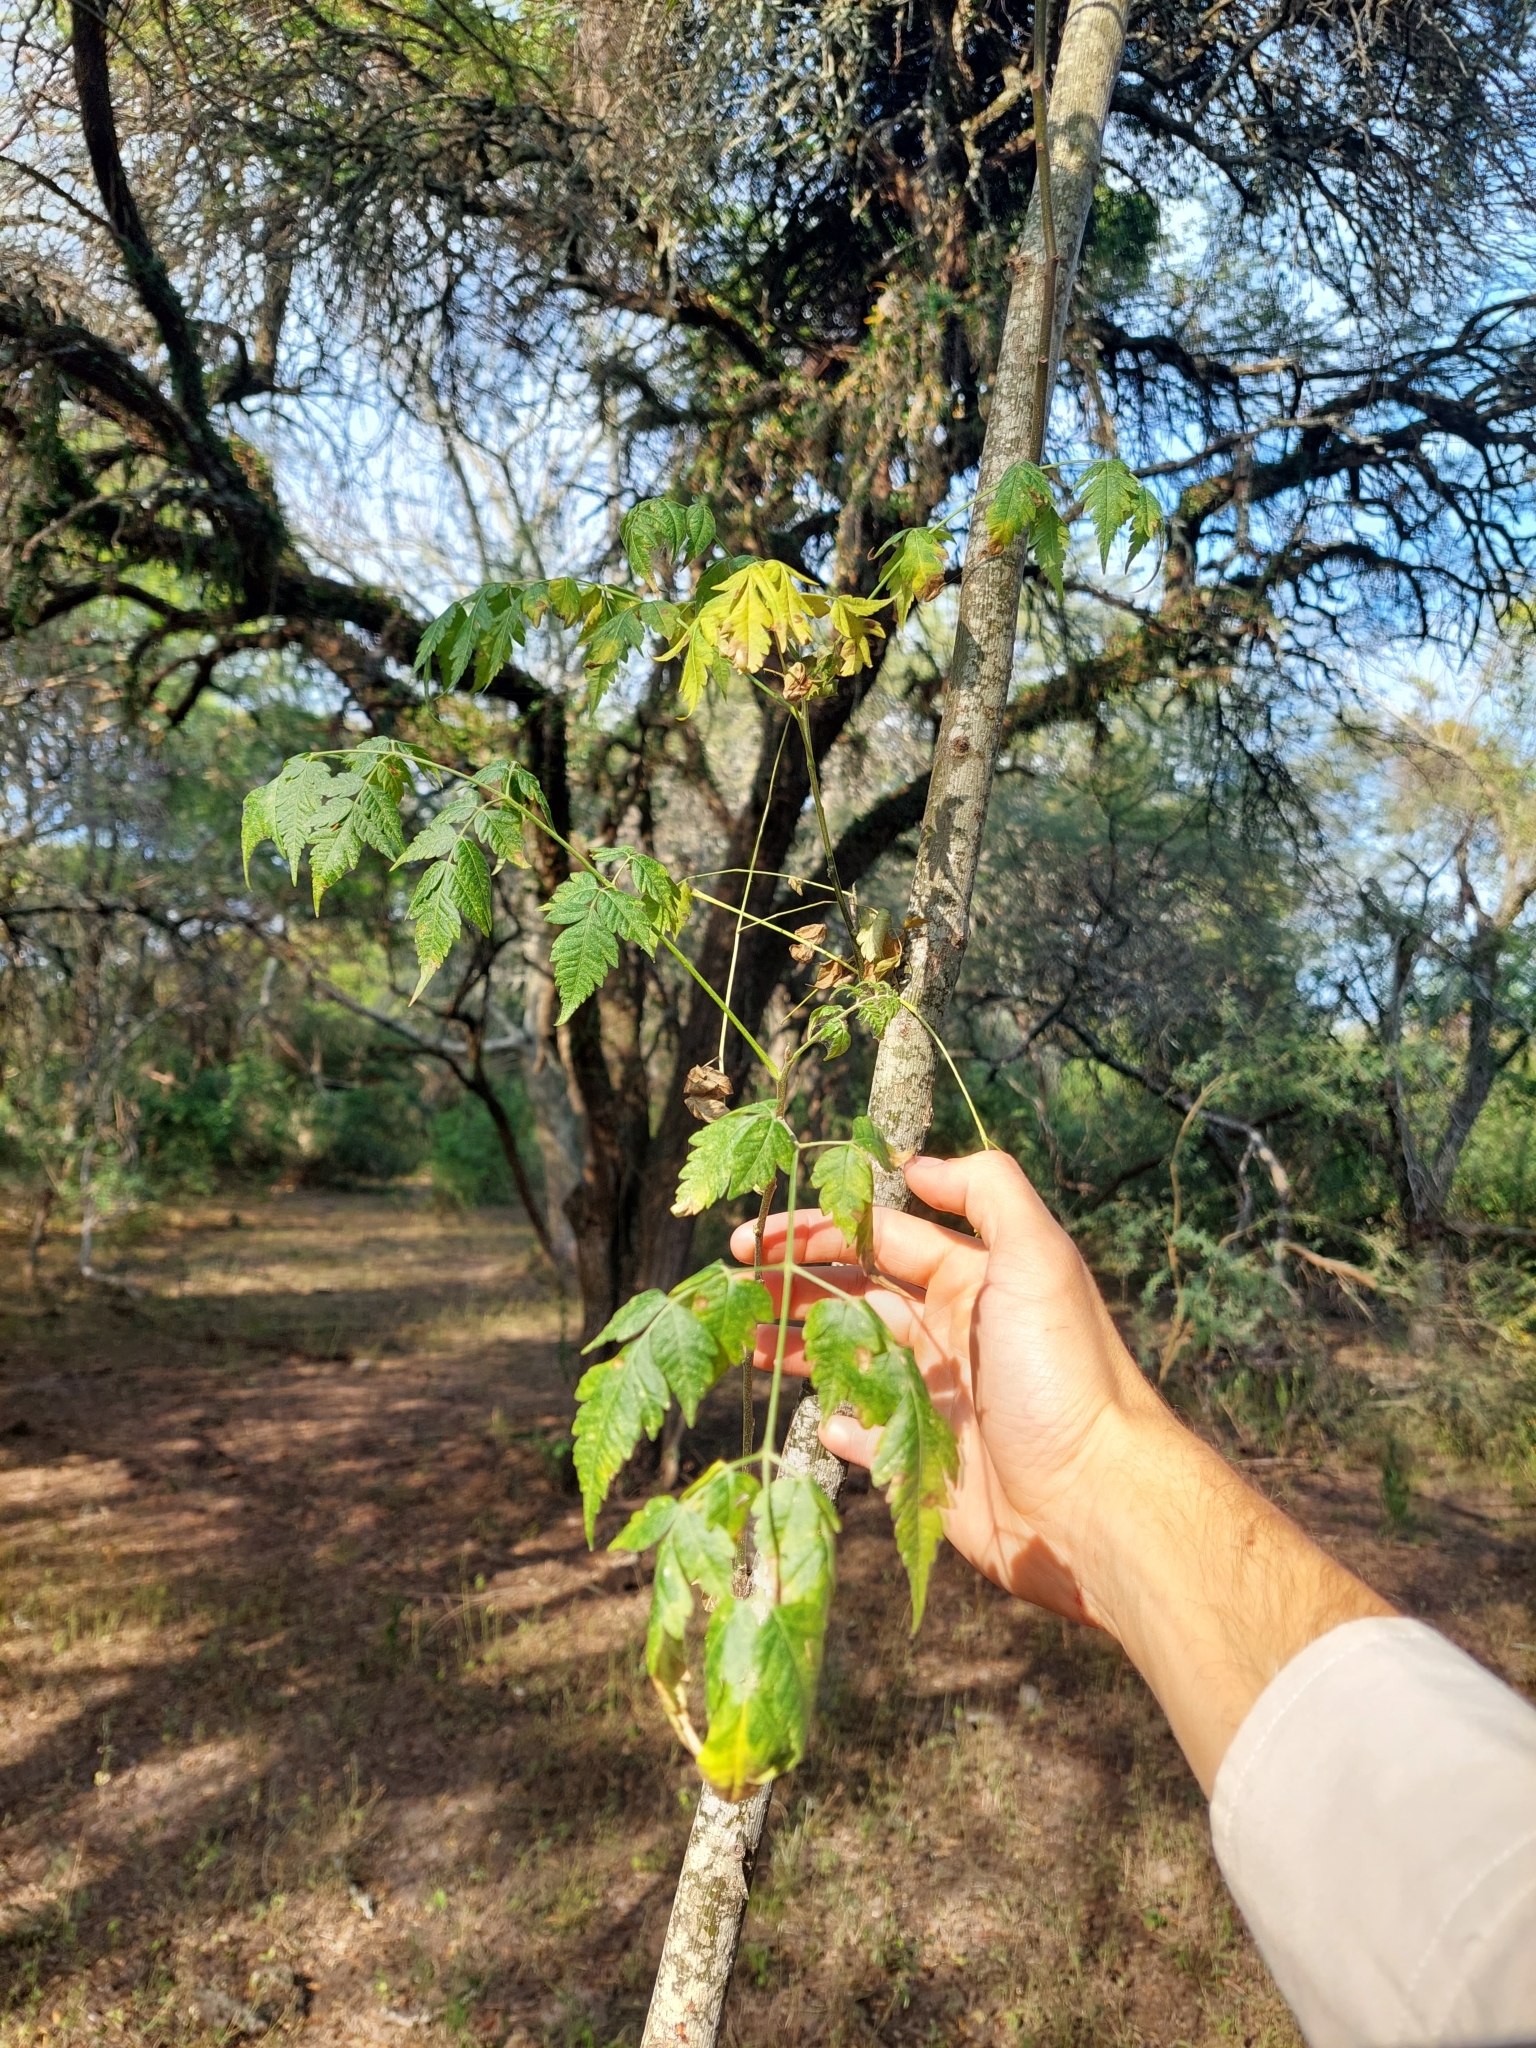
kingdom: Plantae
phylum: Tracheophyta
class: Magnoliopsida
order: Sapindales
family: Meliaceae
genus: Melia
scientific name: Melia azedarach
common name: Chinaberrytree
